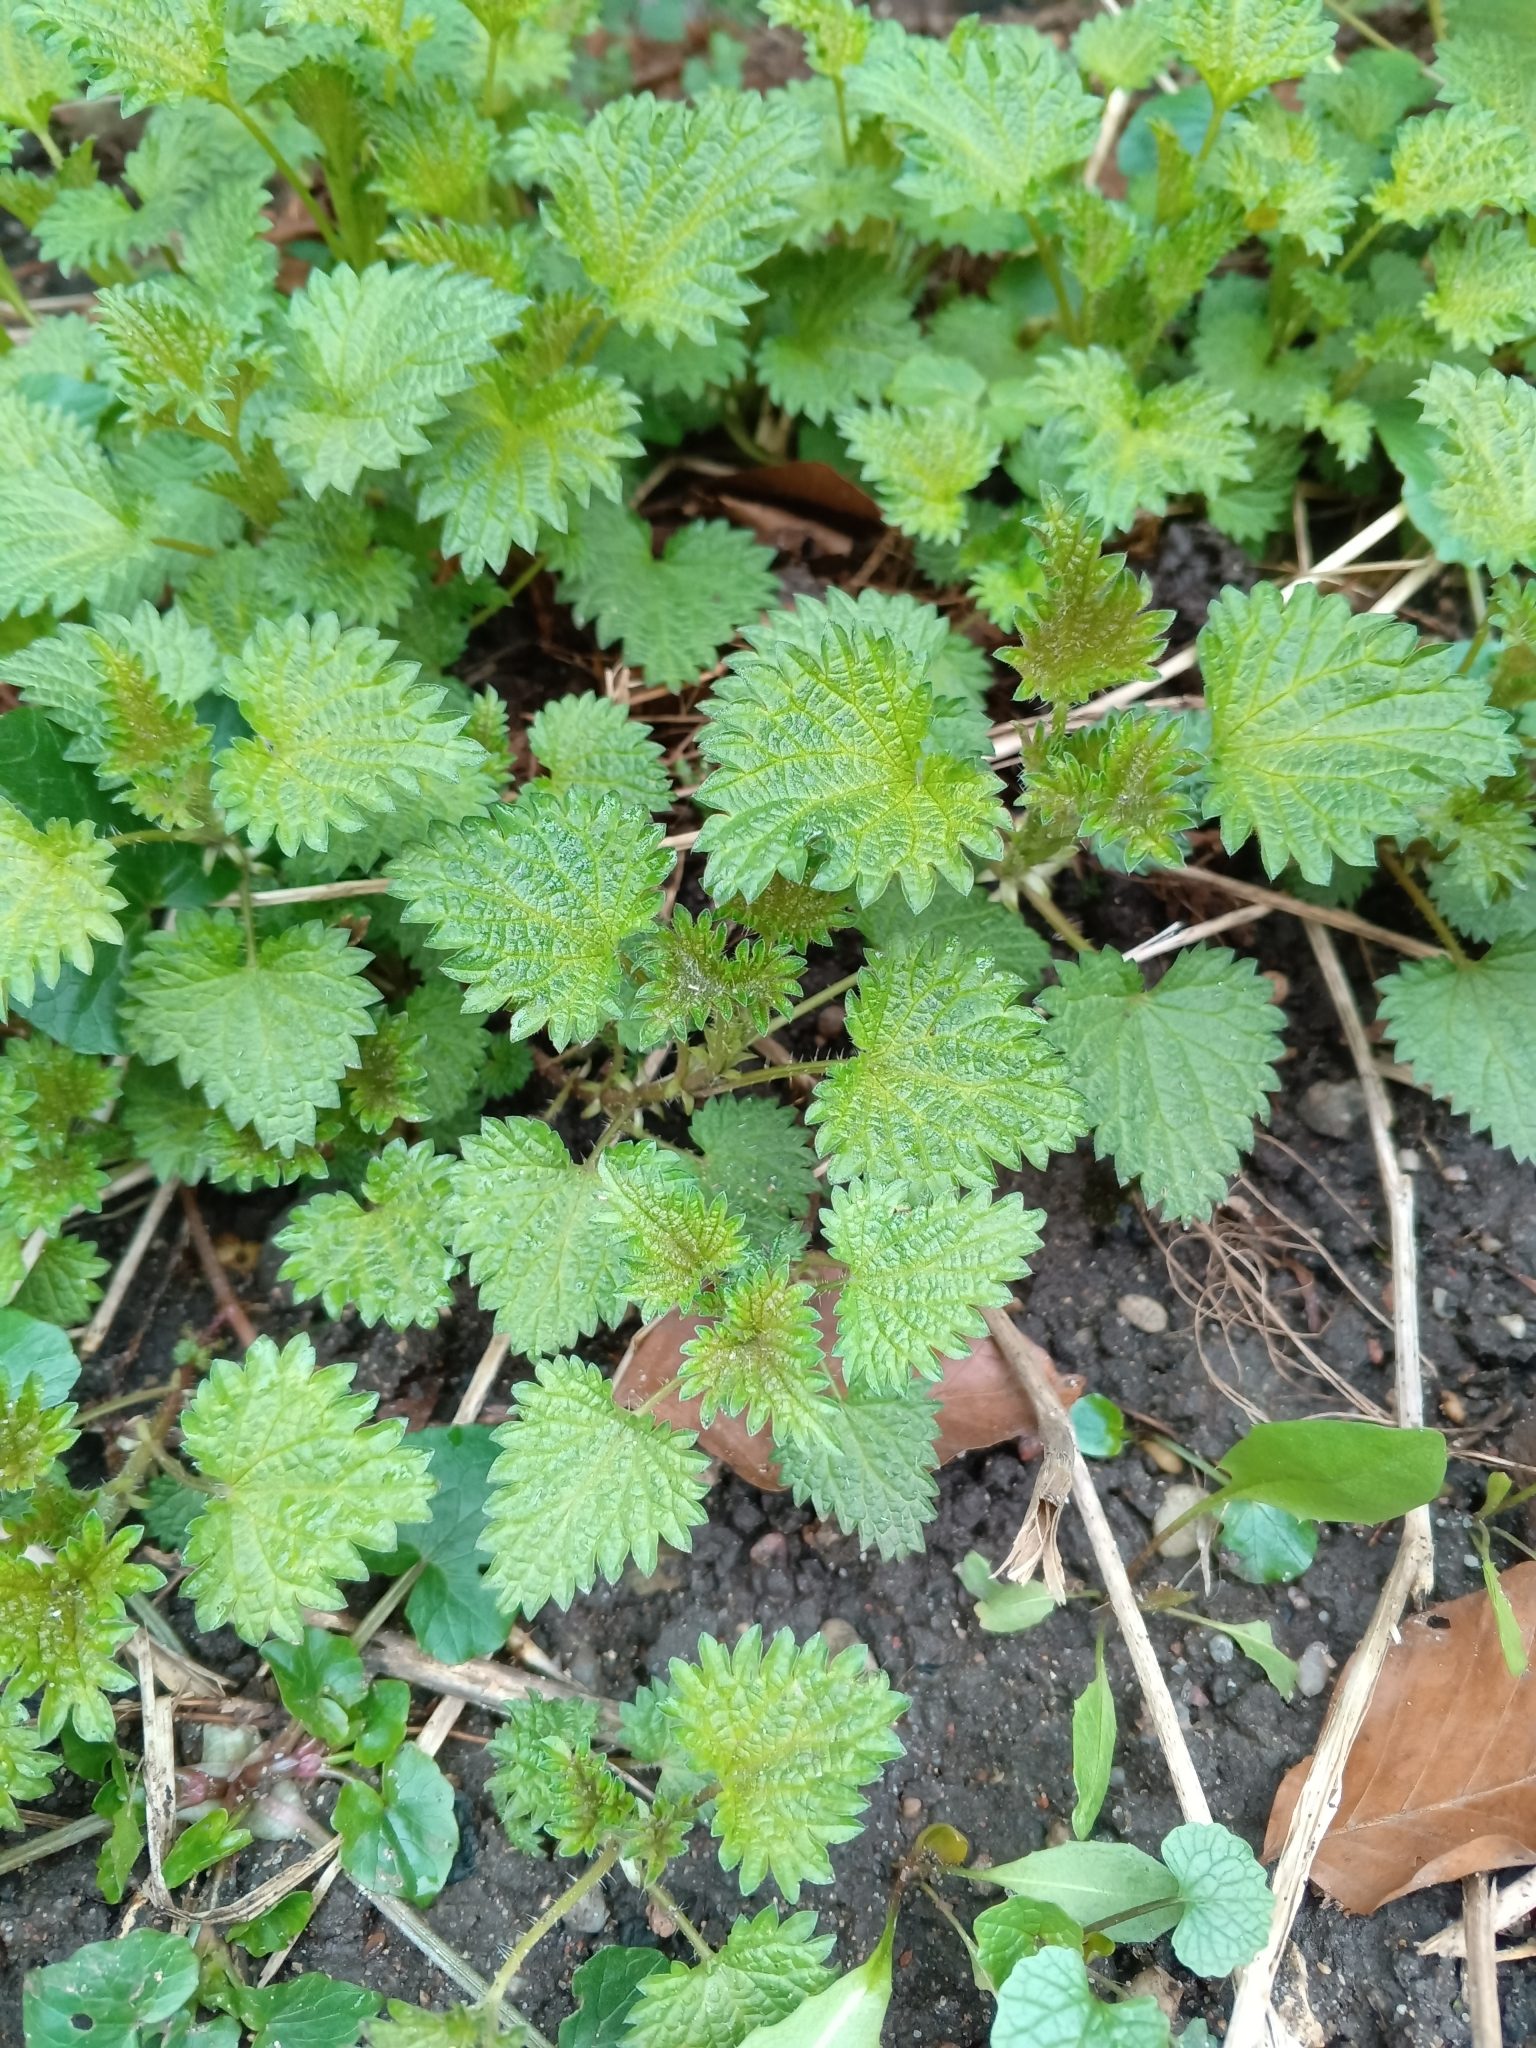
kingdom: Plantae
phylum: Tracheophyta
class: Magnoliopsida
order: Rosales
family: Urticaceae
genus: Urtica
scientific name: Urtica dioica
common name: Common nettle
